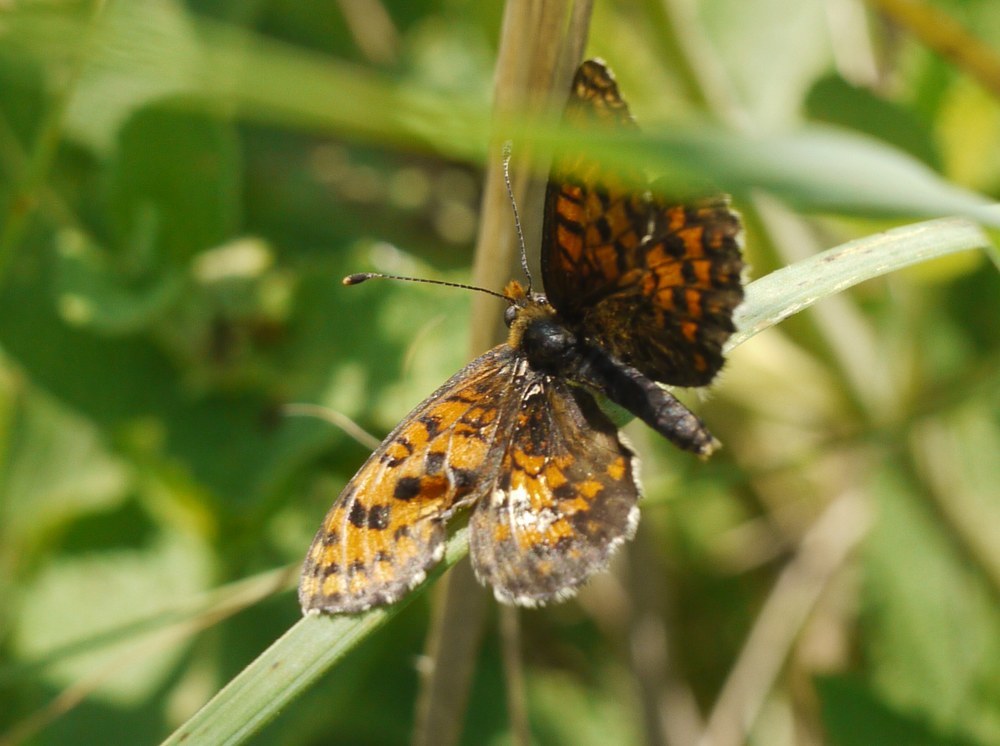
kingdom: Animalia
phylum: Arthropoda
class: Insecta
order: Lepidoptera
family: Nymphalidae
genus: Melitaea
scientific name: Melitaea trivia
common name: Lesser spotted fritillary
